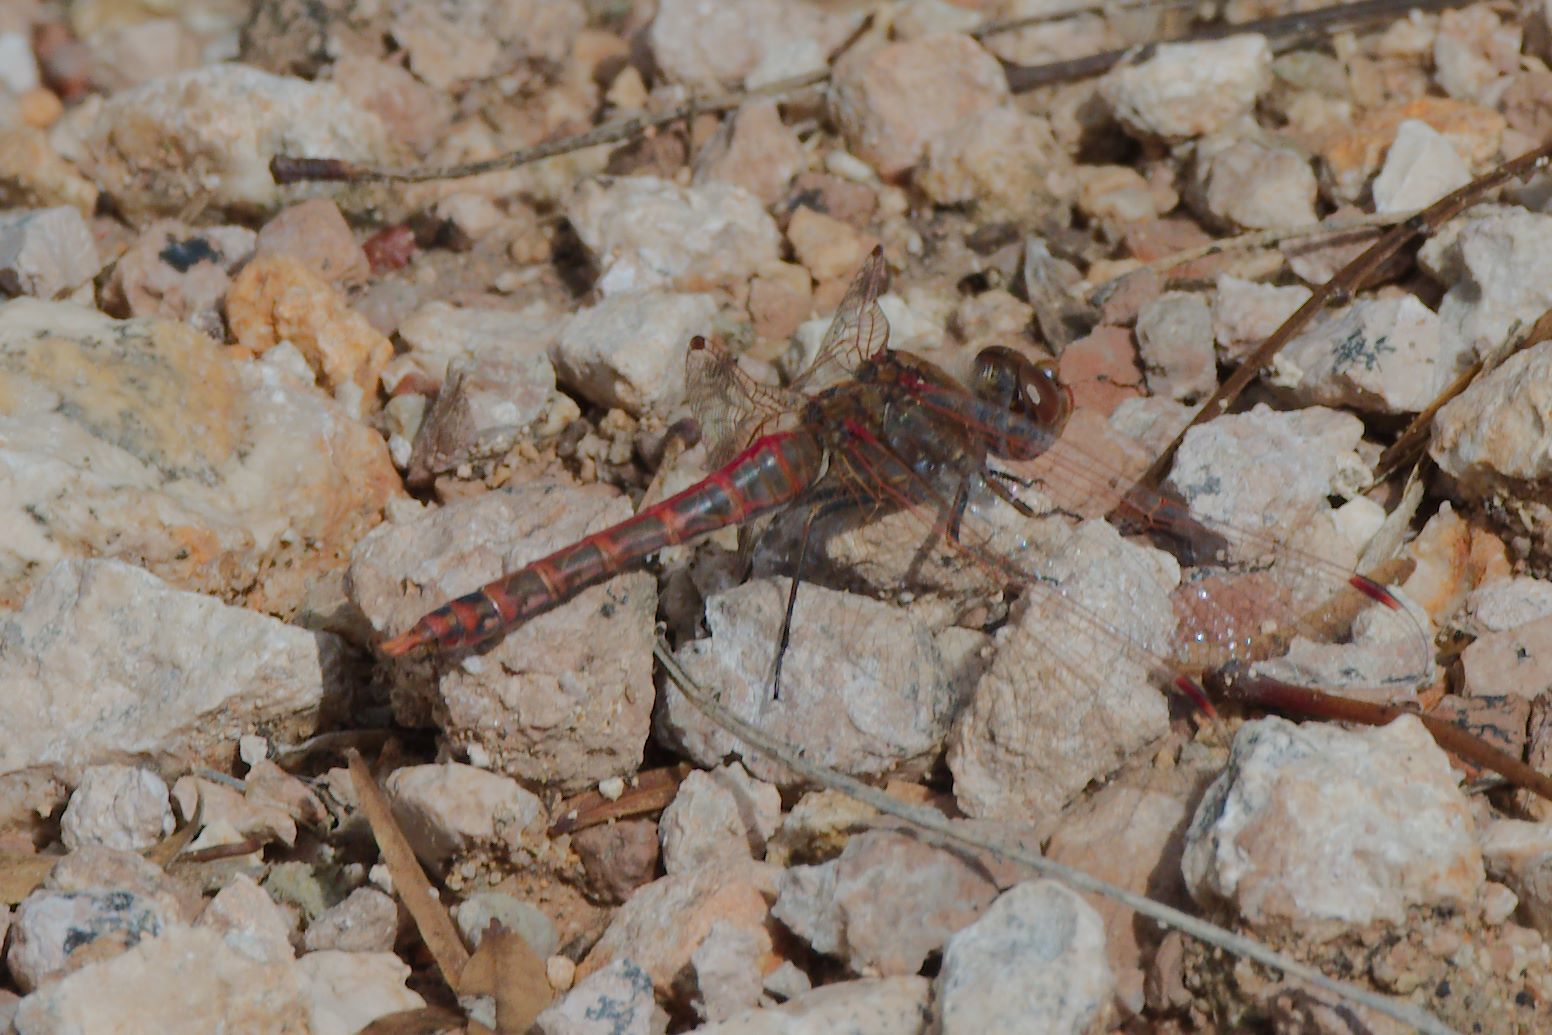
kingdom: Animalia
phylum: Arthropoda
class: Insecta
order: Odonata
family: Libellulidae
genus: Sympetrum
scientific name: Sympetrum corruptum
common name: Variegated meadowhawk
